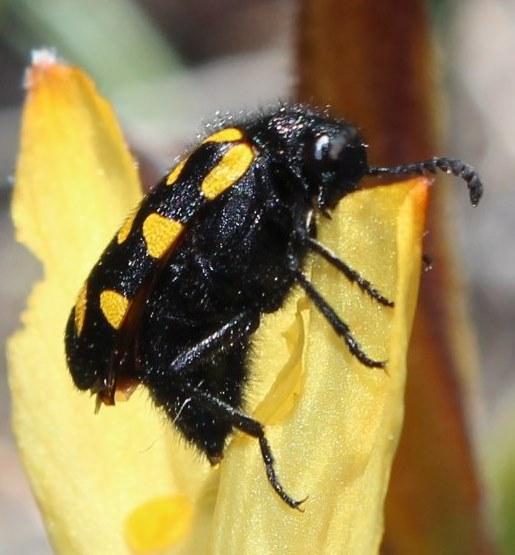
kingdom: Animalia
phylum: Arthropoda
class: Insecta
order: Coleoptera
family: Meloidae
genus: Ceroctis
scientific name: Ceroctis capensis
